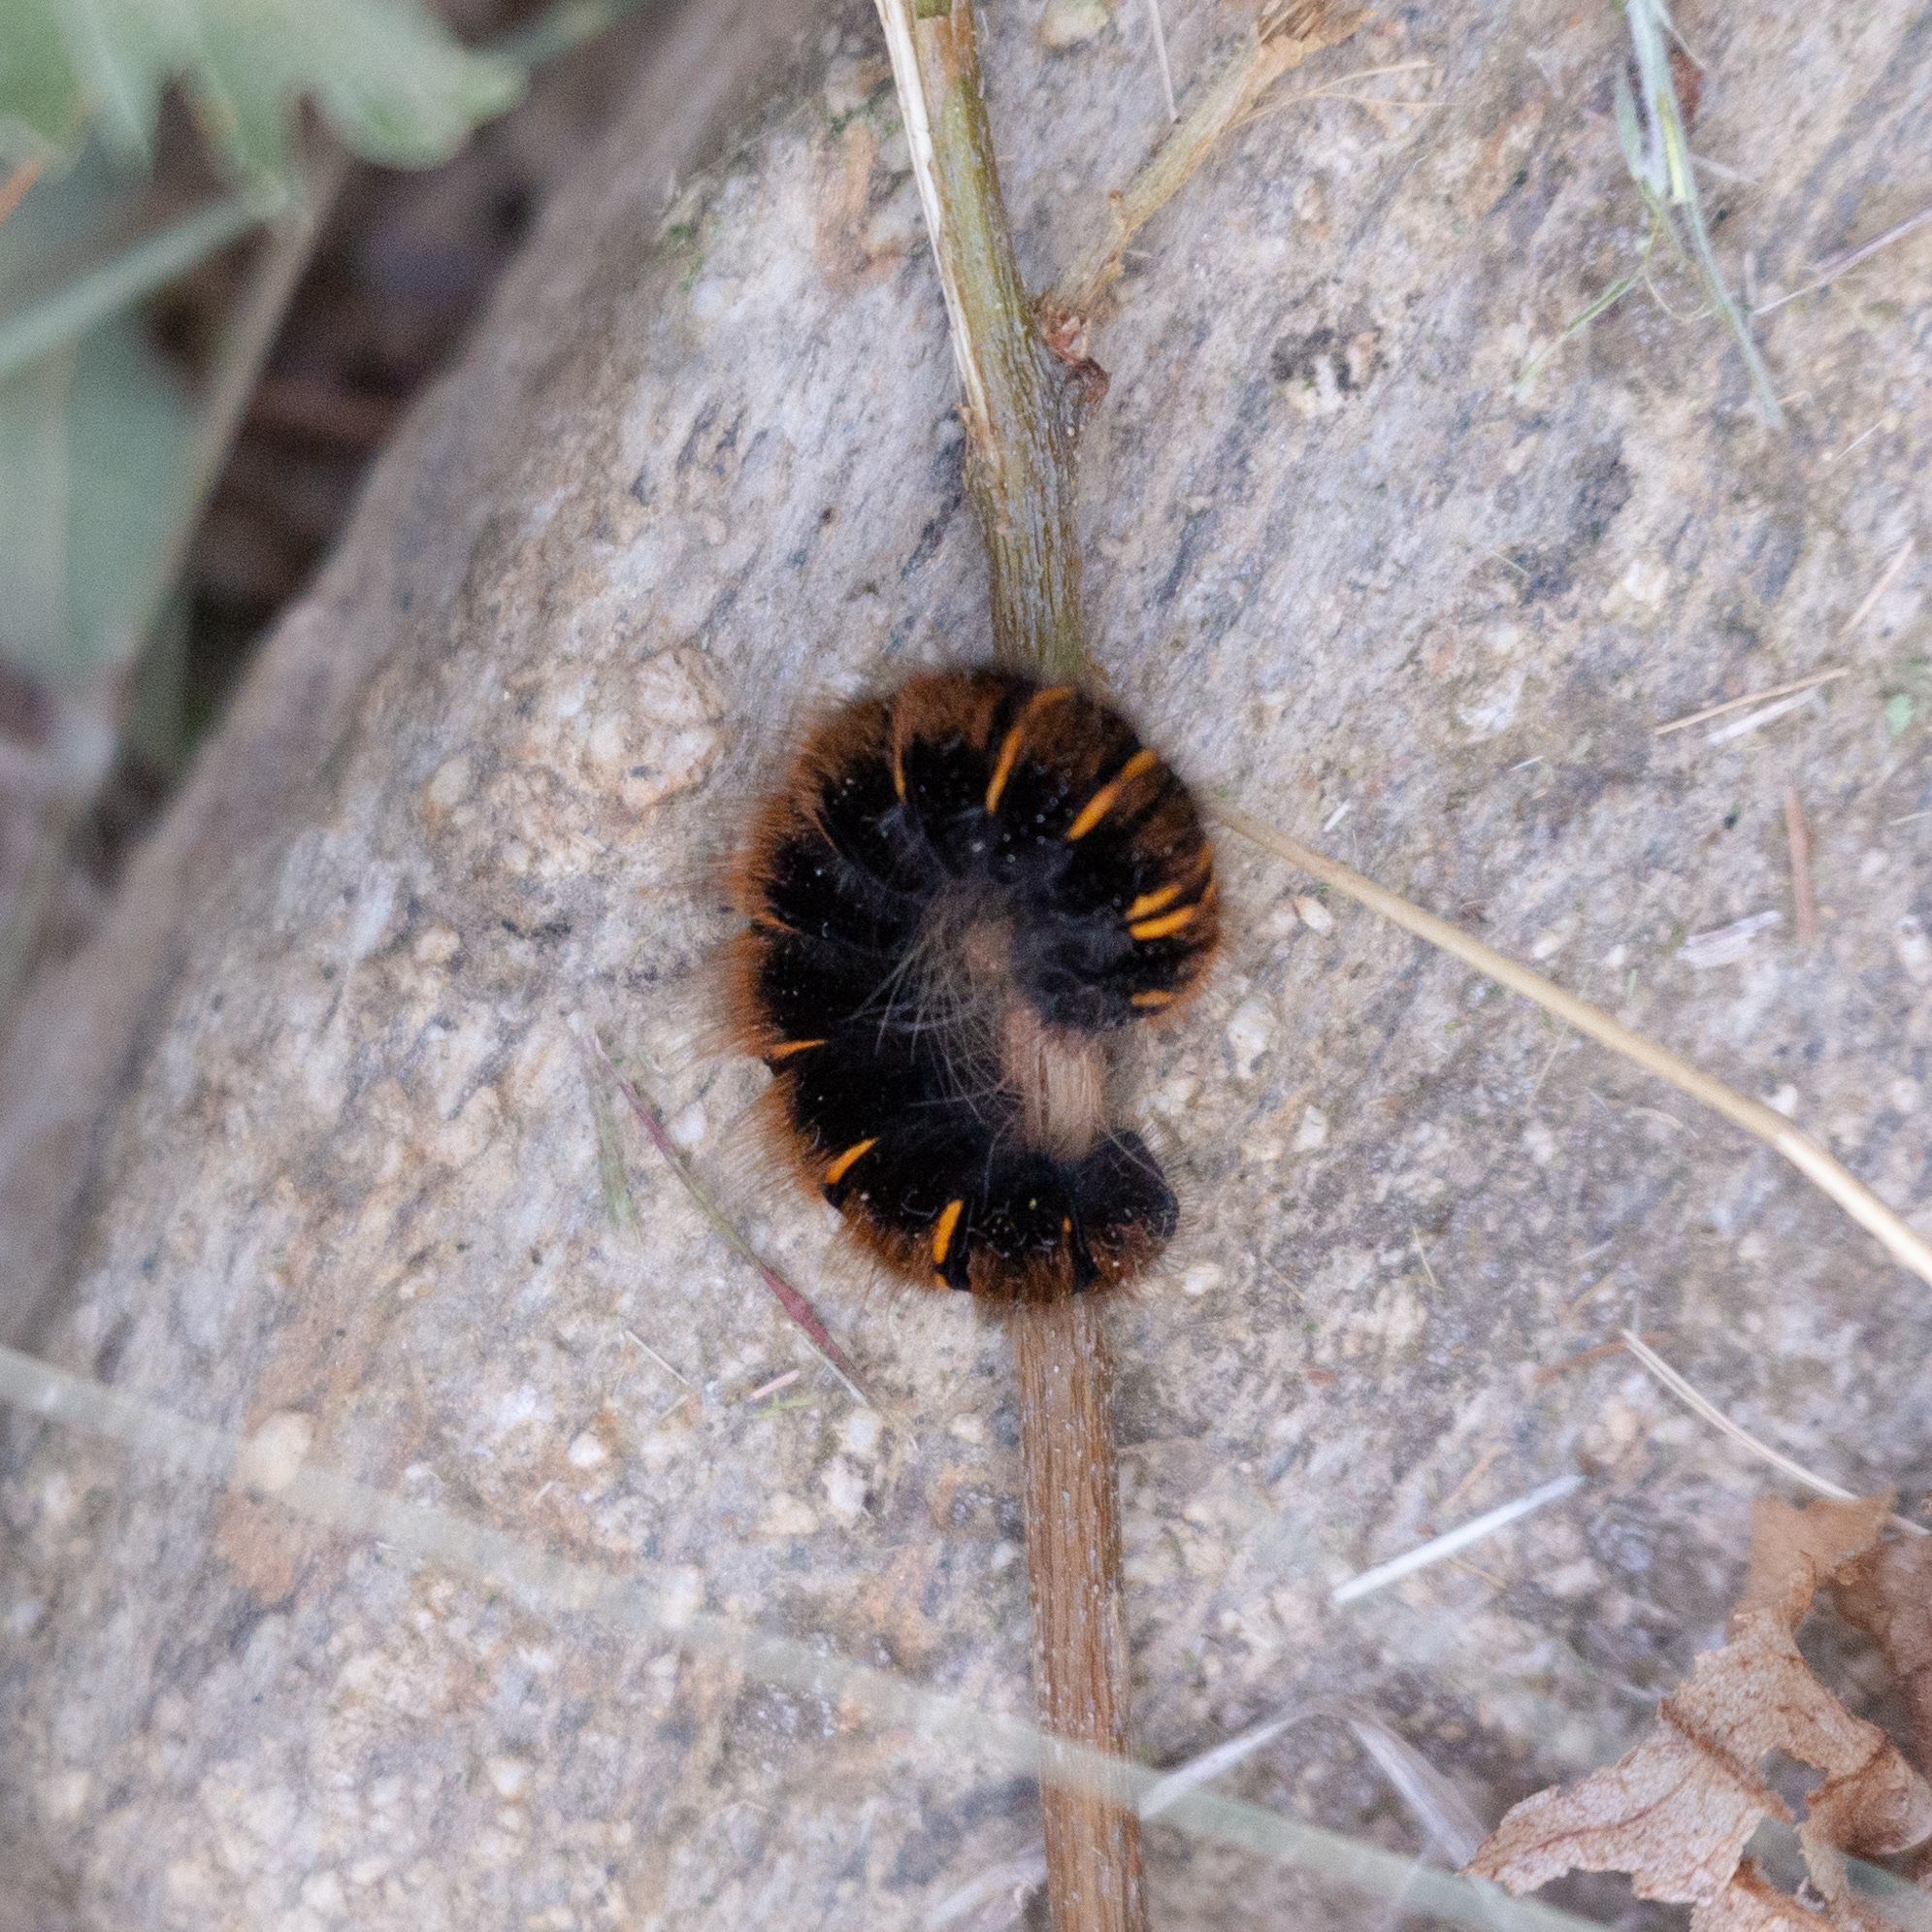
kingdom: Animalia
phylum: Arthropoda
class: Insecta
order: Lepidoptera
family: Lasiocampidae
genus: Macrothylacia
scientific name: Macrothylacia rubi
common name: Fox moth
